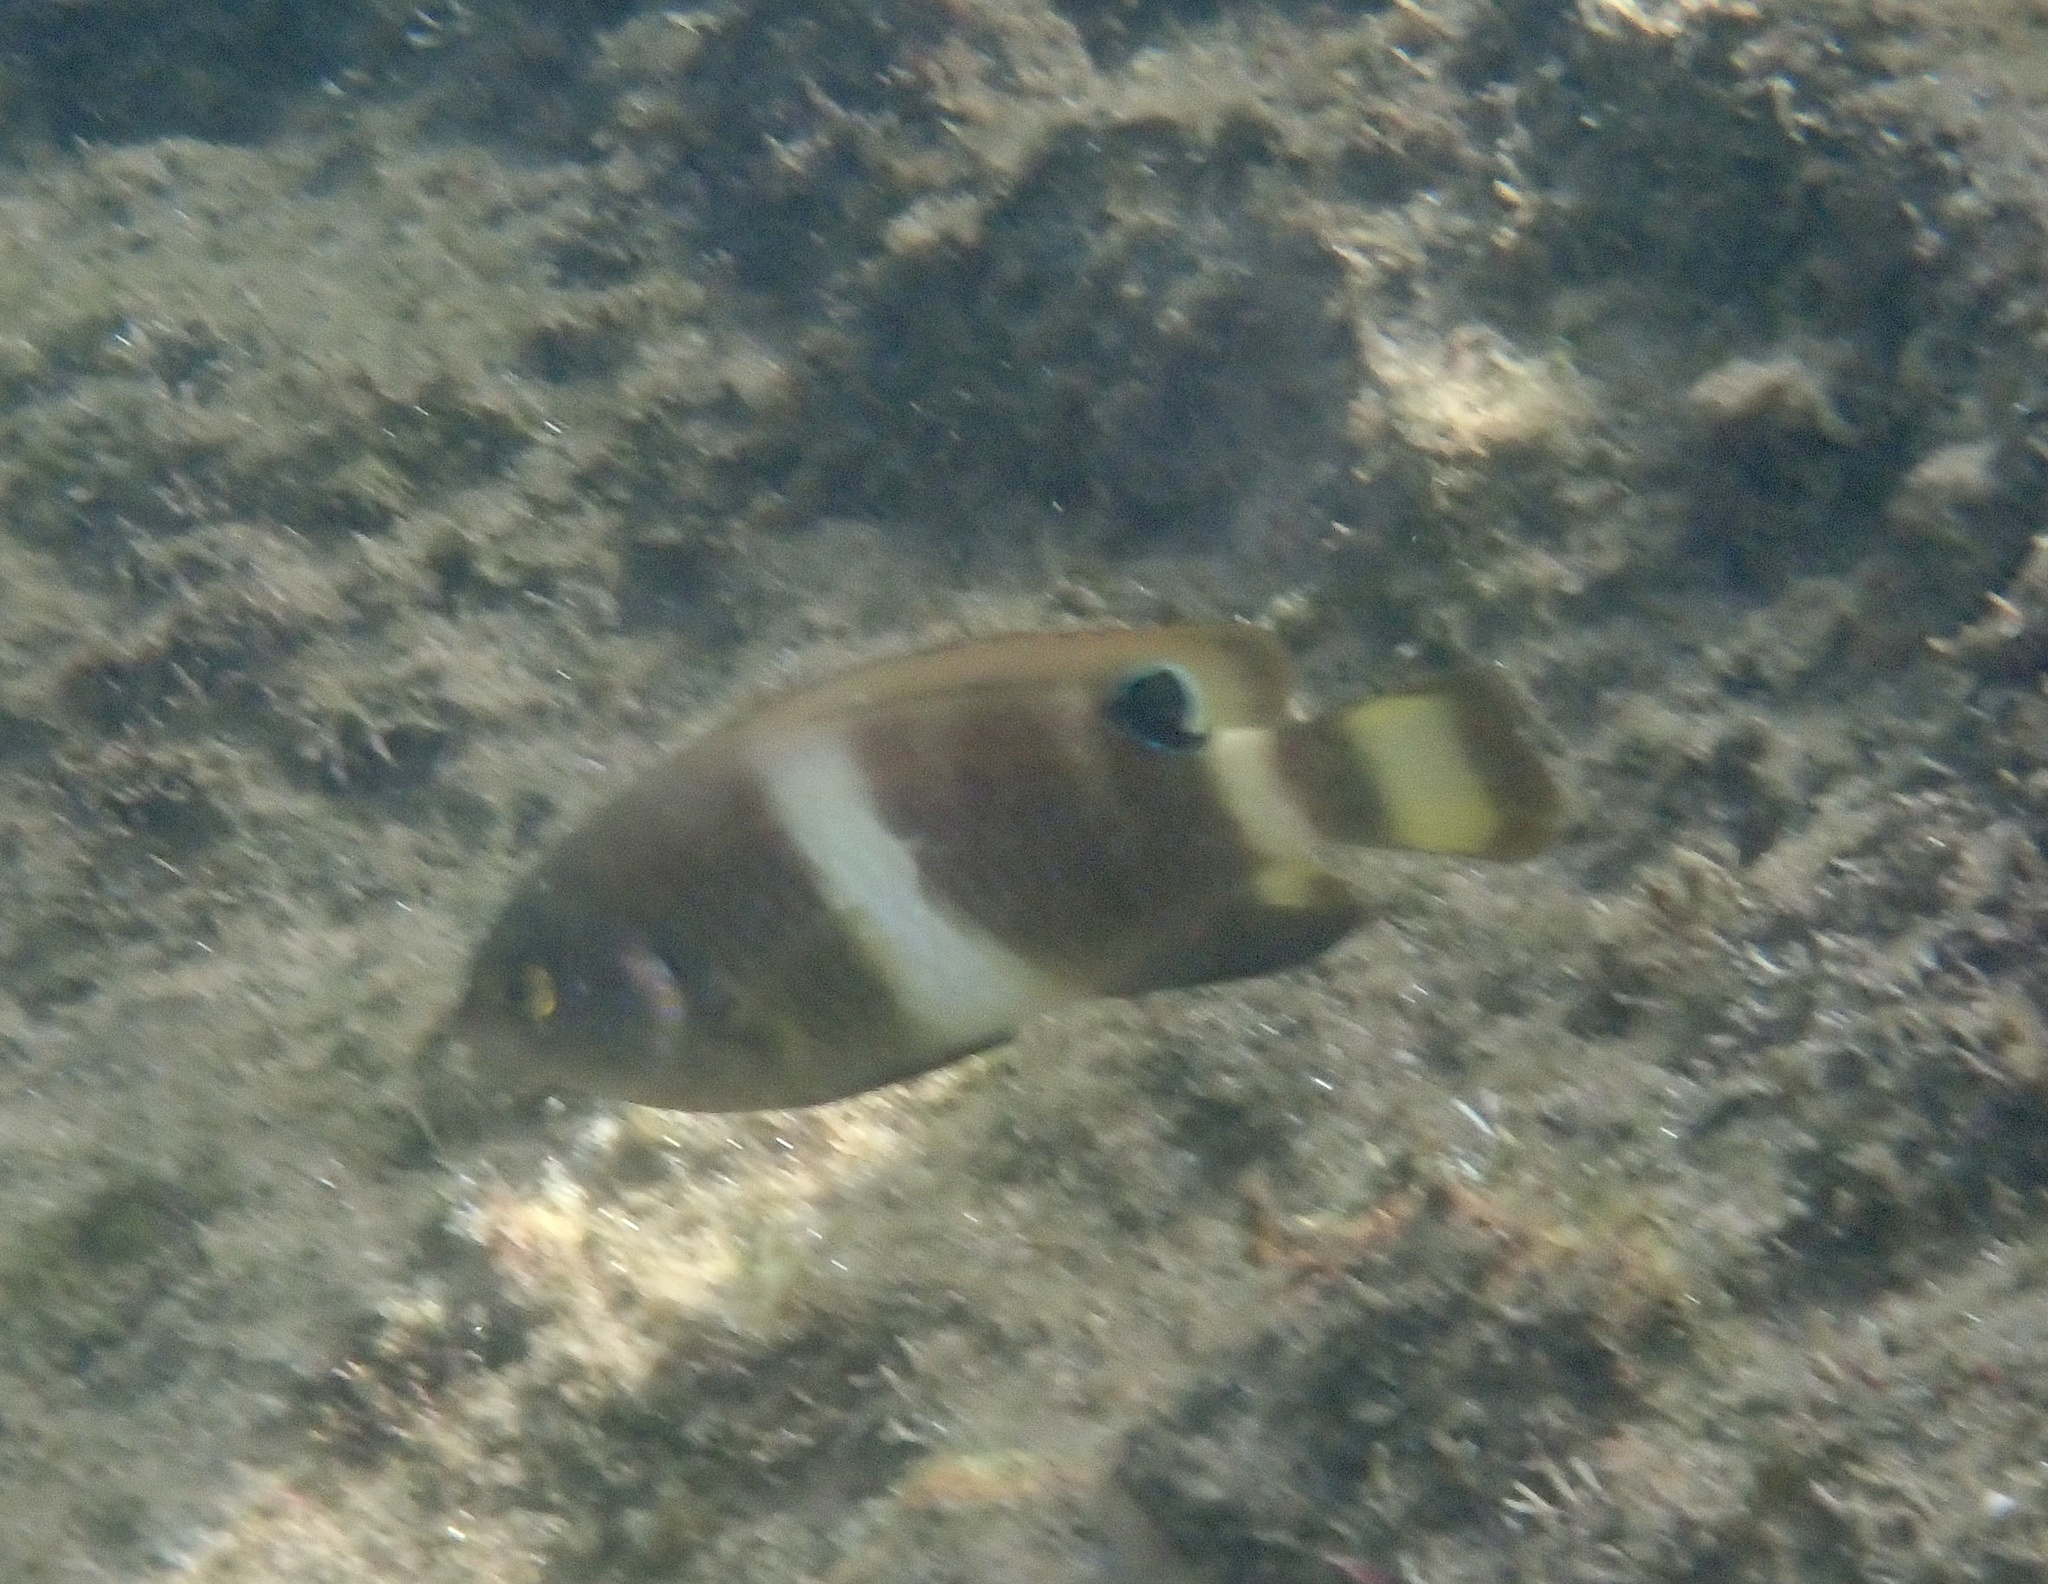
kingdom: Animalia
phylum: Chordata
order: Perciformes
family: Pomacentridae
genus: Chrysiptera
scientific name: Chrysiptera brownriggii
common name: Surge demoiselle
